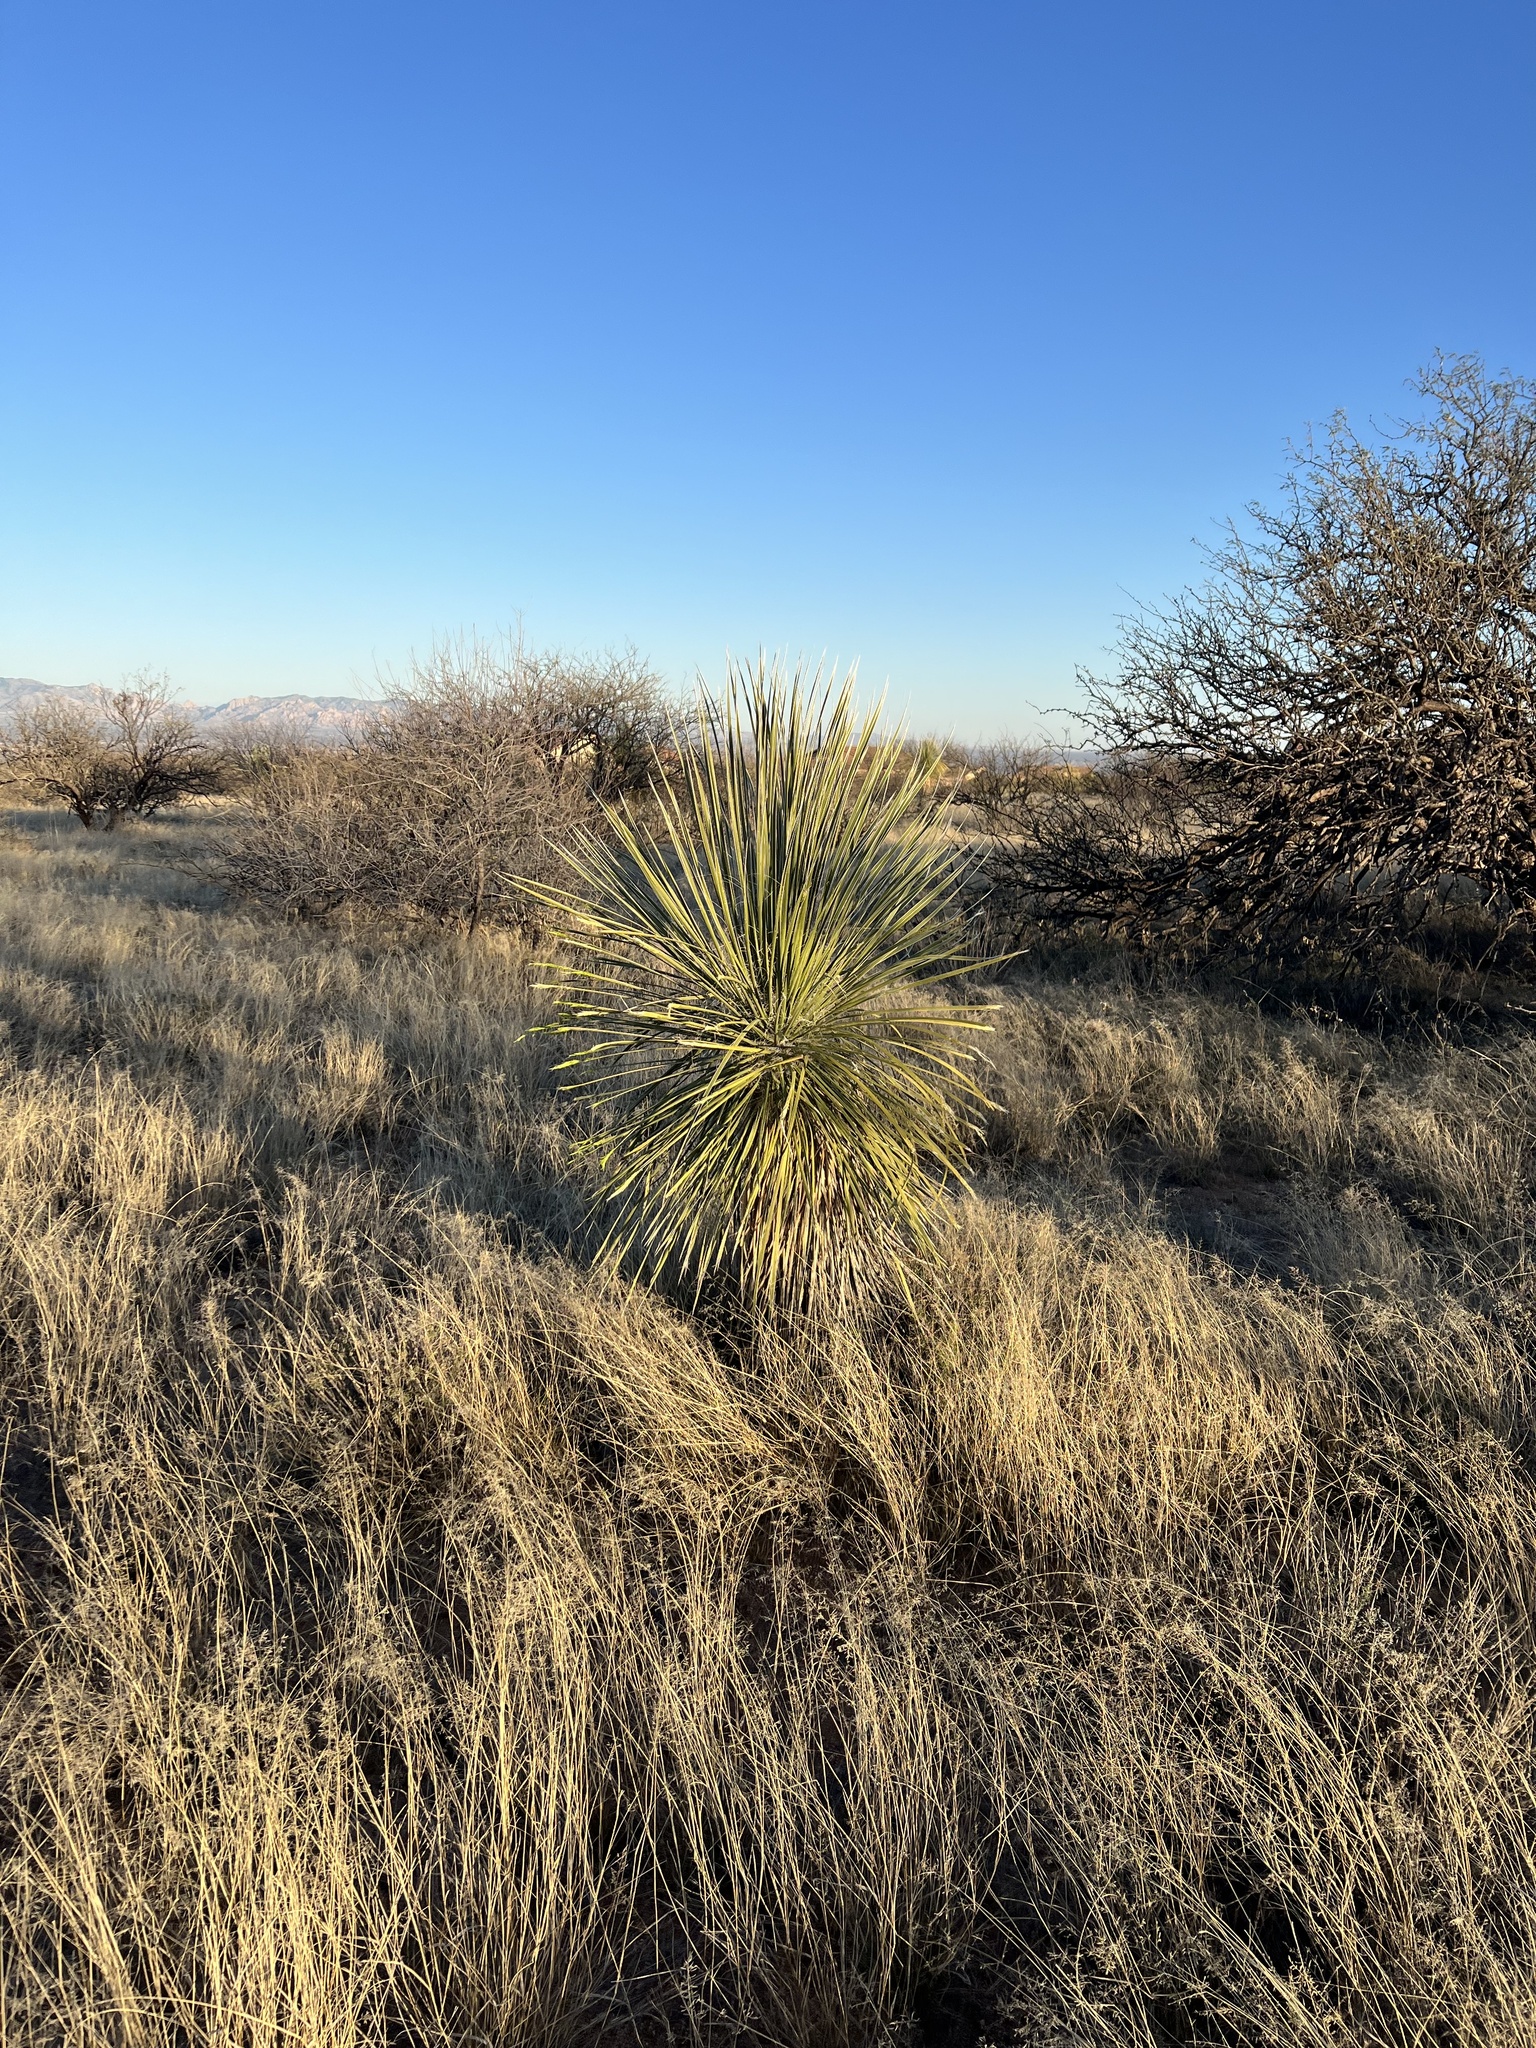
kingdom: Plantae
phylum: Tracheophyta
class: Liliopsida
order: Asparagales
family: Asparagaceae
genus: Yucca
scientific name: Yucca elata
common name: Palmella
